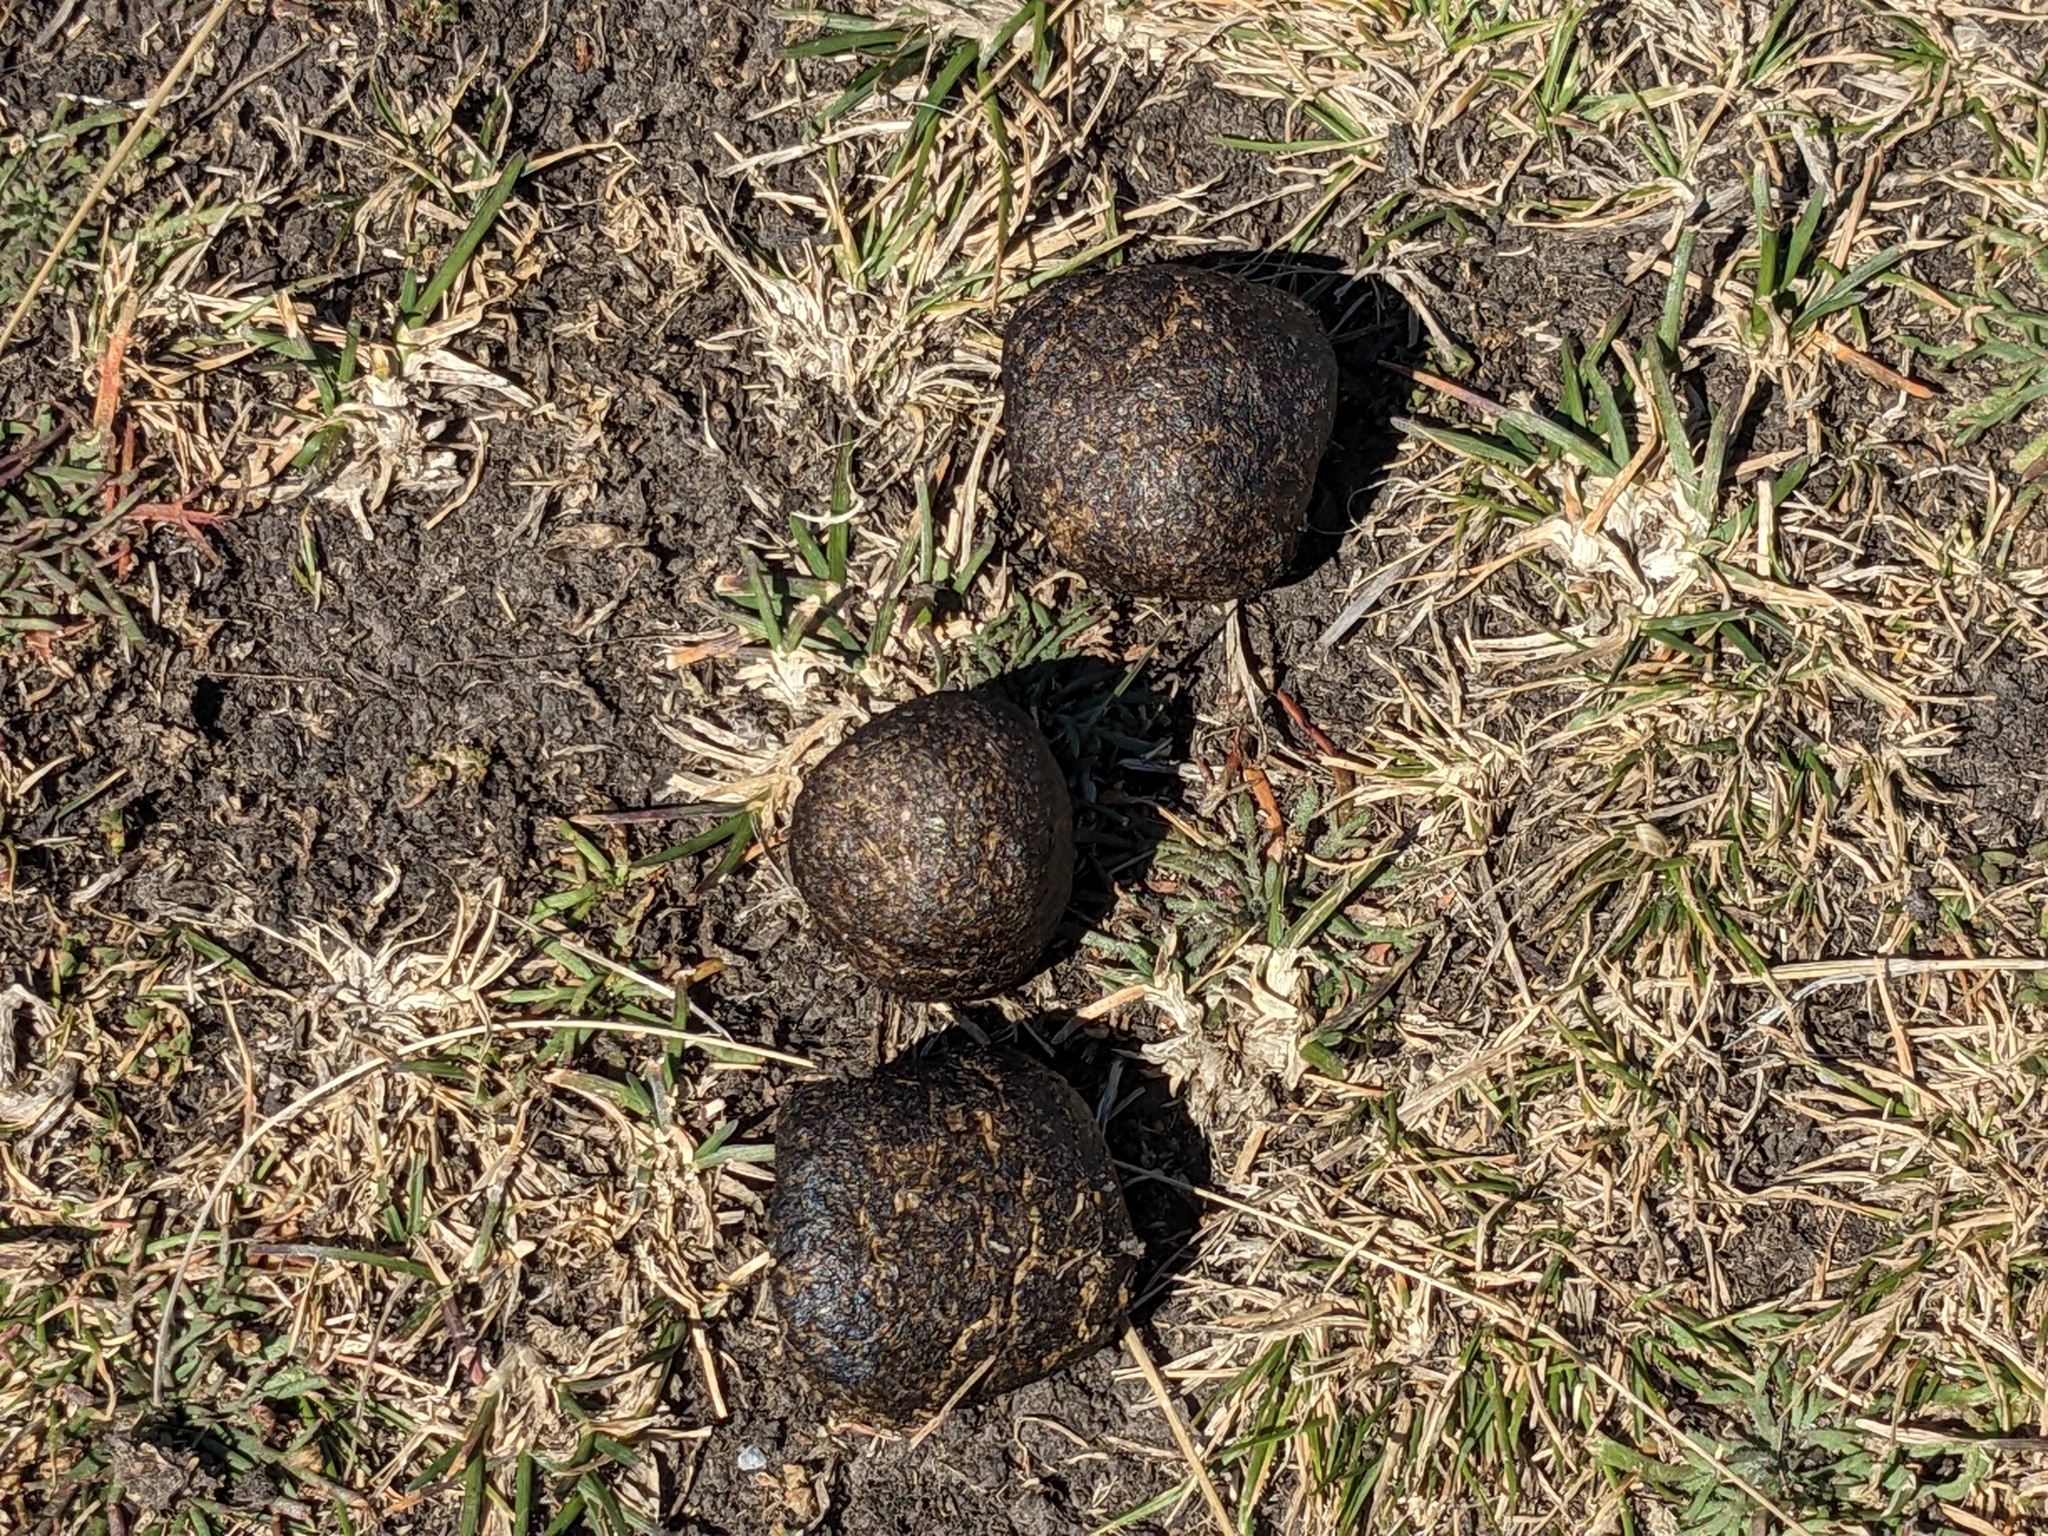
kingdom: Animalia
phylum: Chordata
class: Mammalia
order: Diprotodontia
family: Vombatidae
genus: Vombatus
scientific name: Vombatus ursinus
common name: Common wombat
